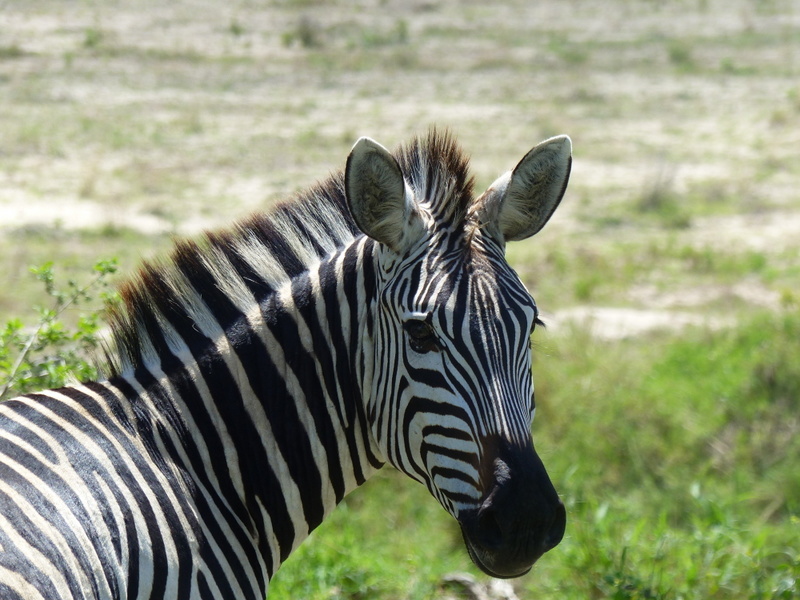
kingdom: Animalia
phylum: Chordata
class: Mammalia
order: Perissodactyla
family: Equidae
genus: Equus
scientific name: Equus quagga
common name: Plains zebra
